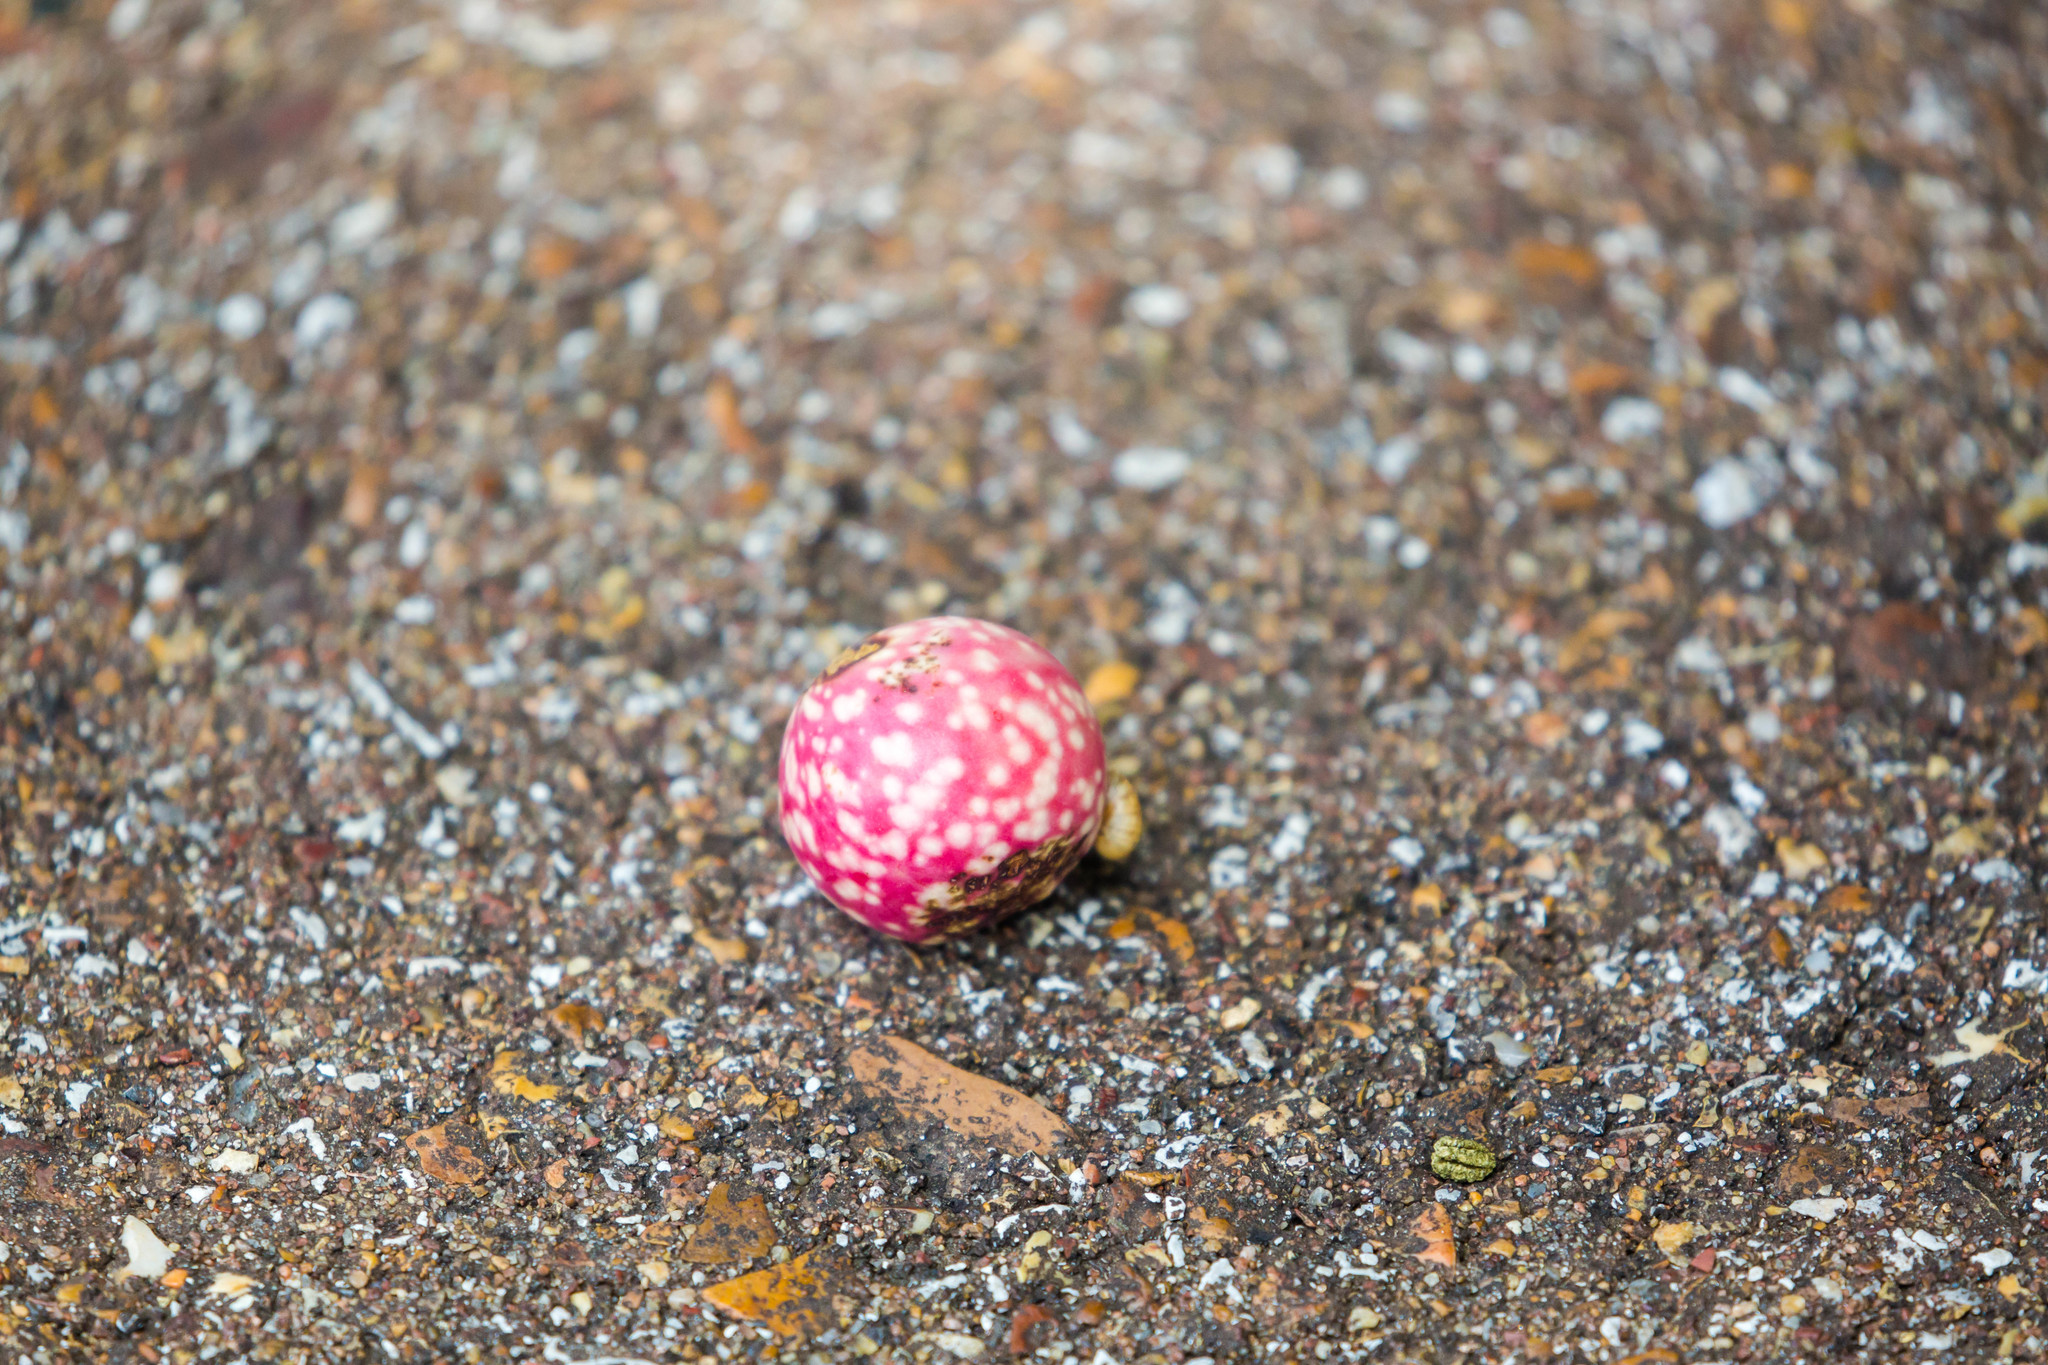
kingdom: Animalia
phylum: Arthropoda
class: Insecta
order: Hymenoptera
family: Cynipidae
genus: Amphibolips
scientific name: Amphibolips
